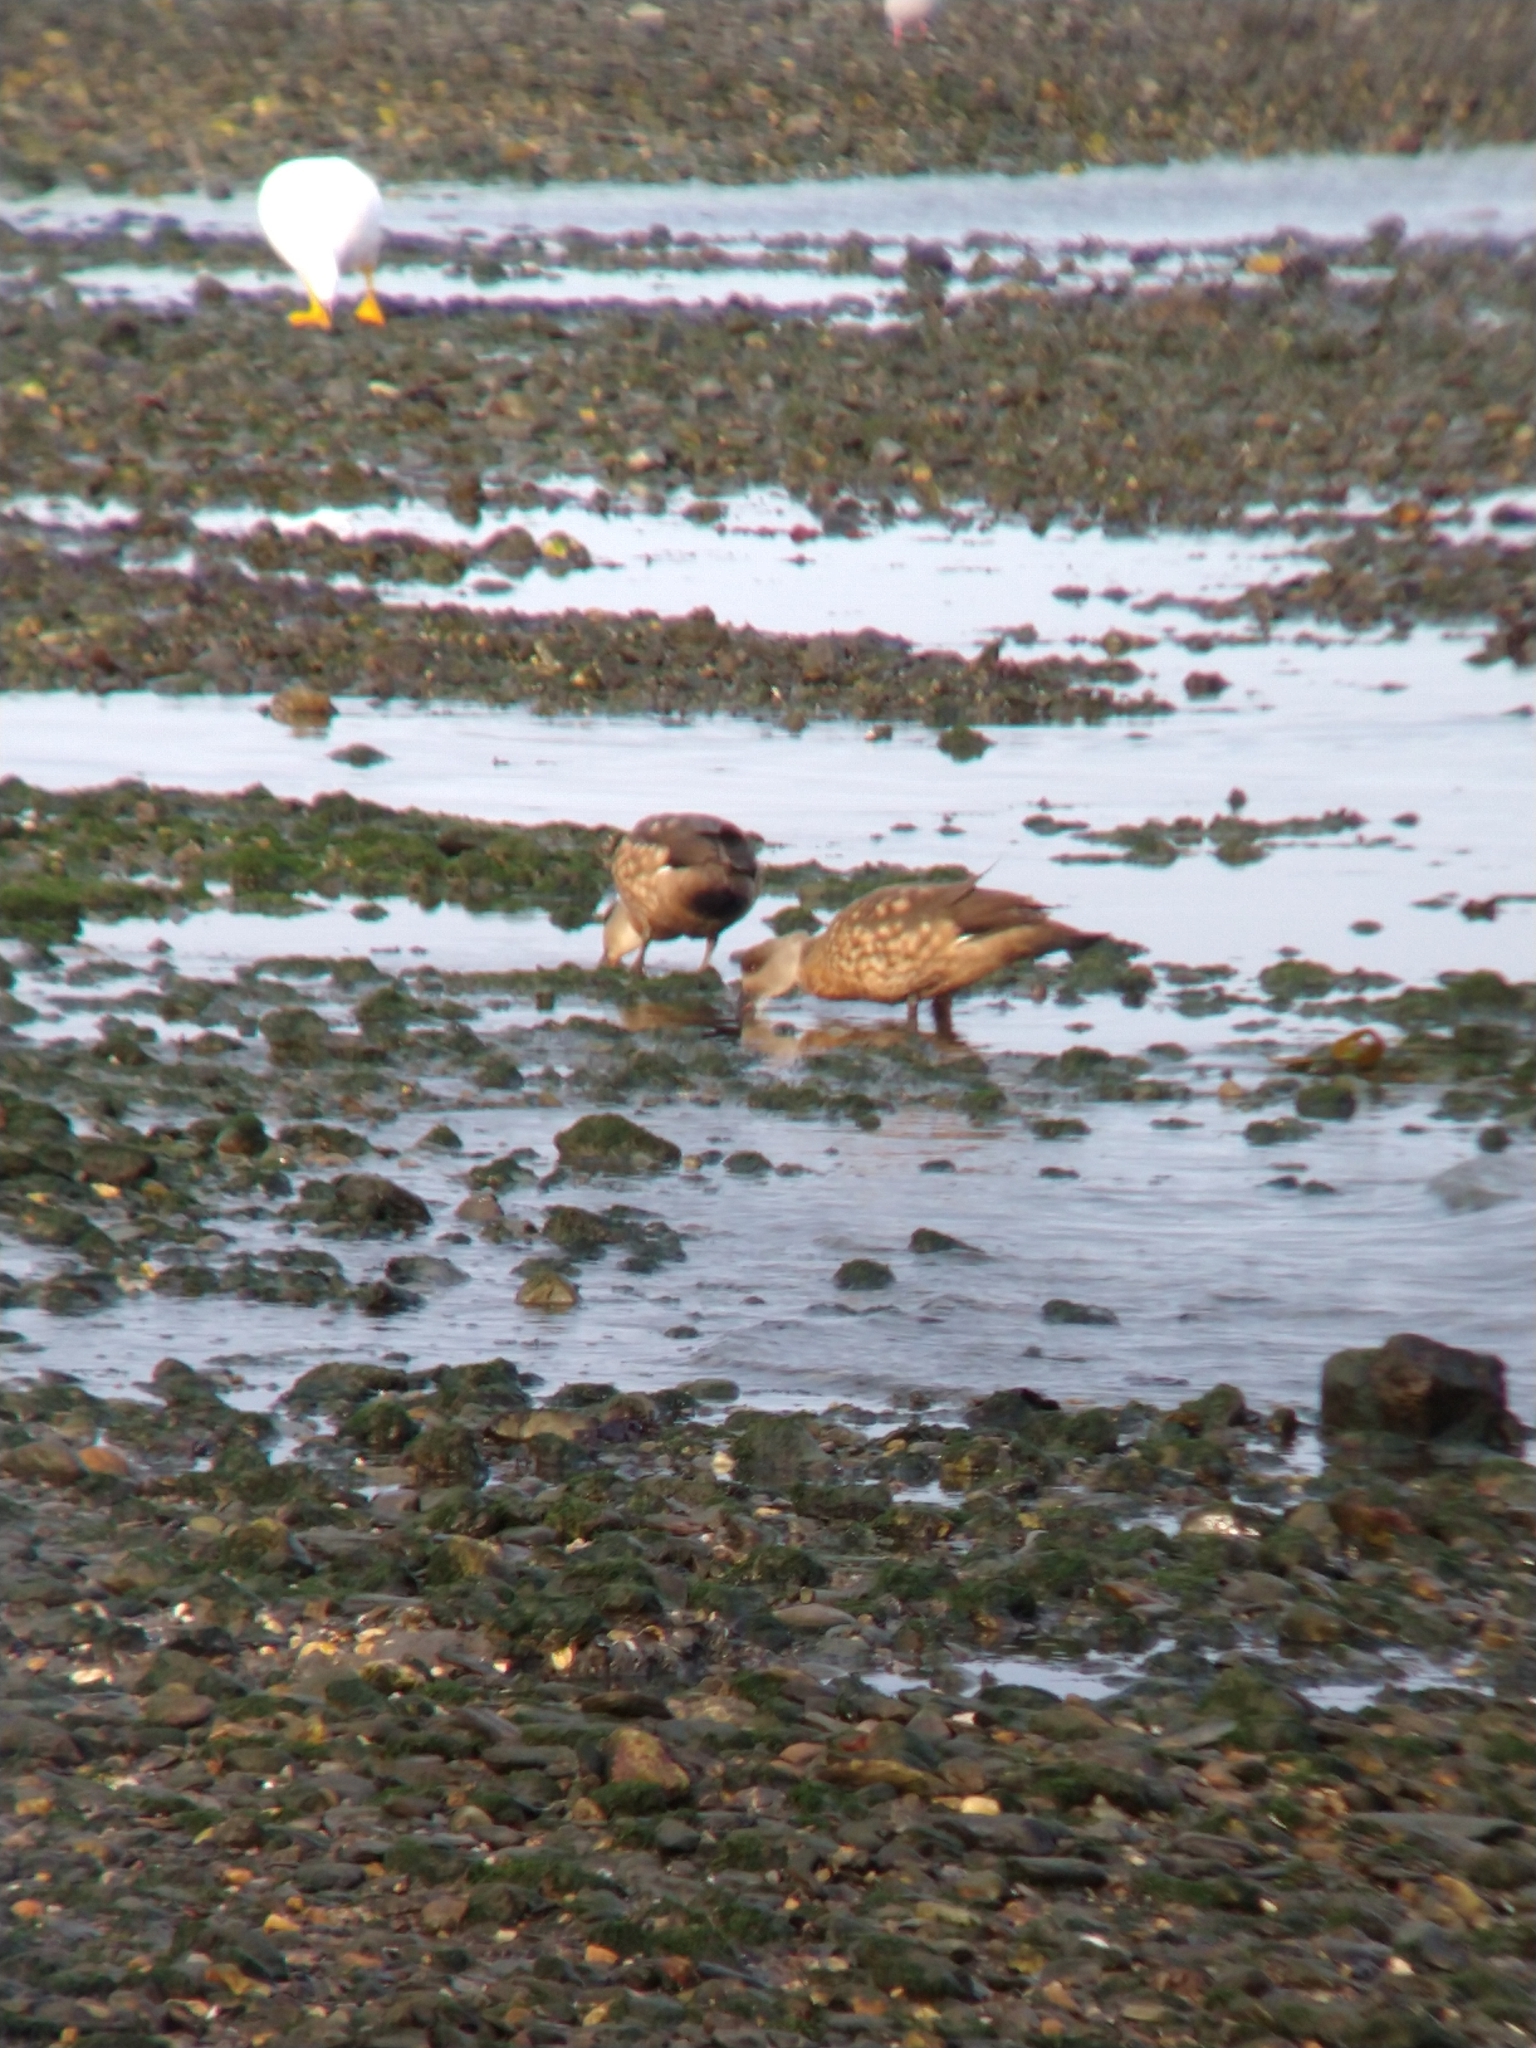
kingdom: Animalia
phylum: Chordata
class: Aves
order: Anseriformes
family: Anatidae
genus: Lophonetta
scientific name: Lophonetta specularioides
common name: Crested duck
